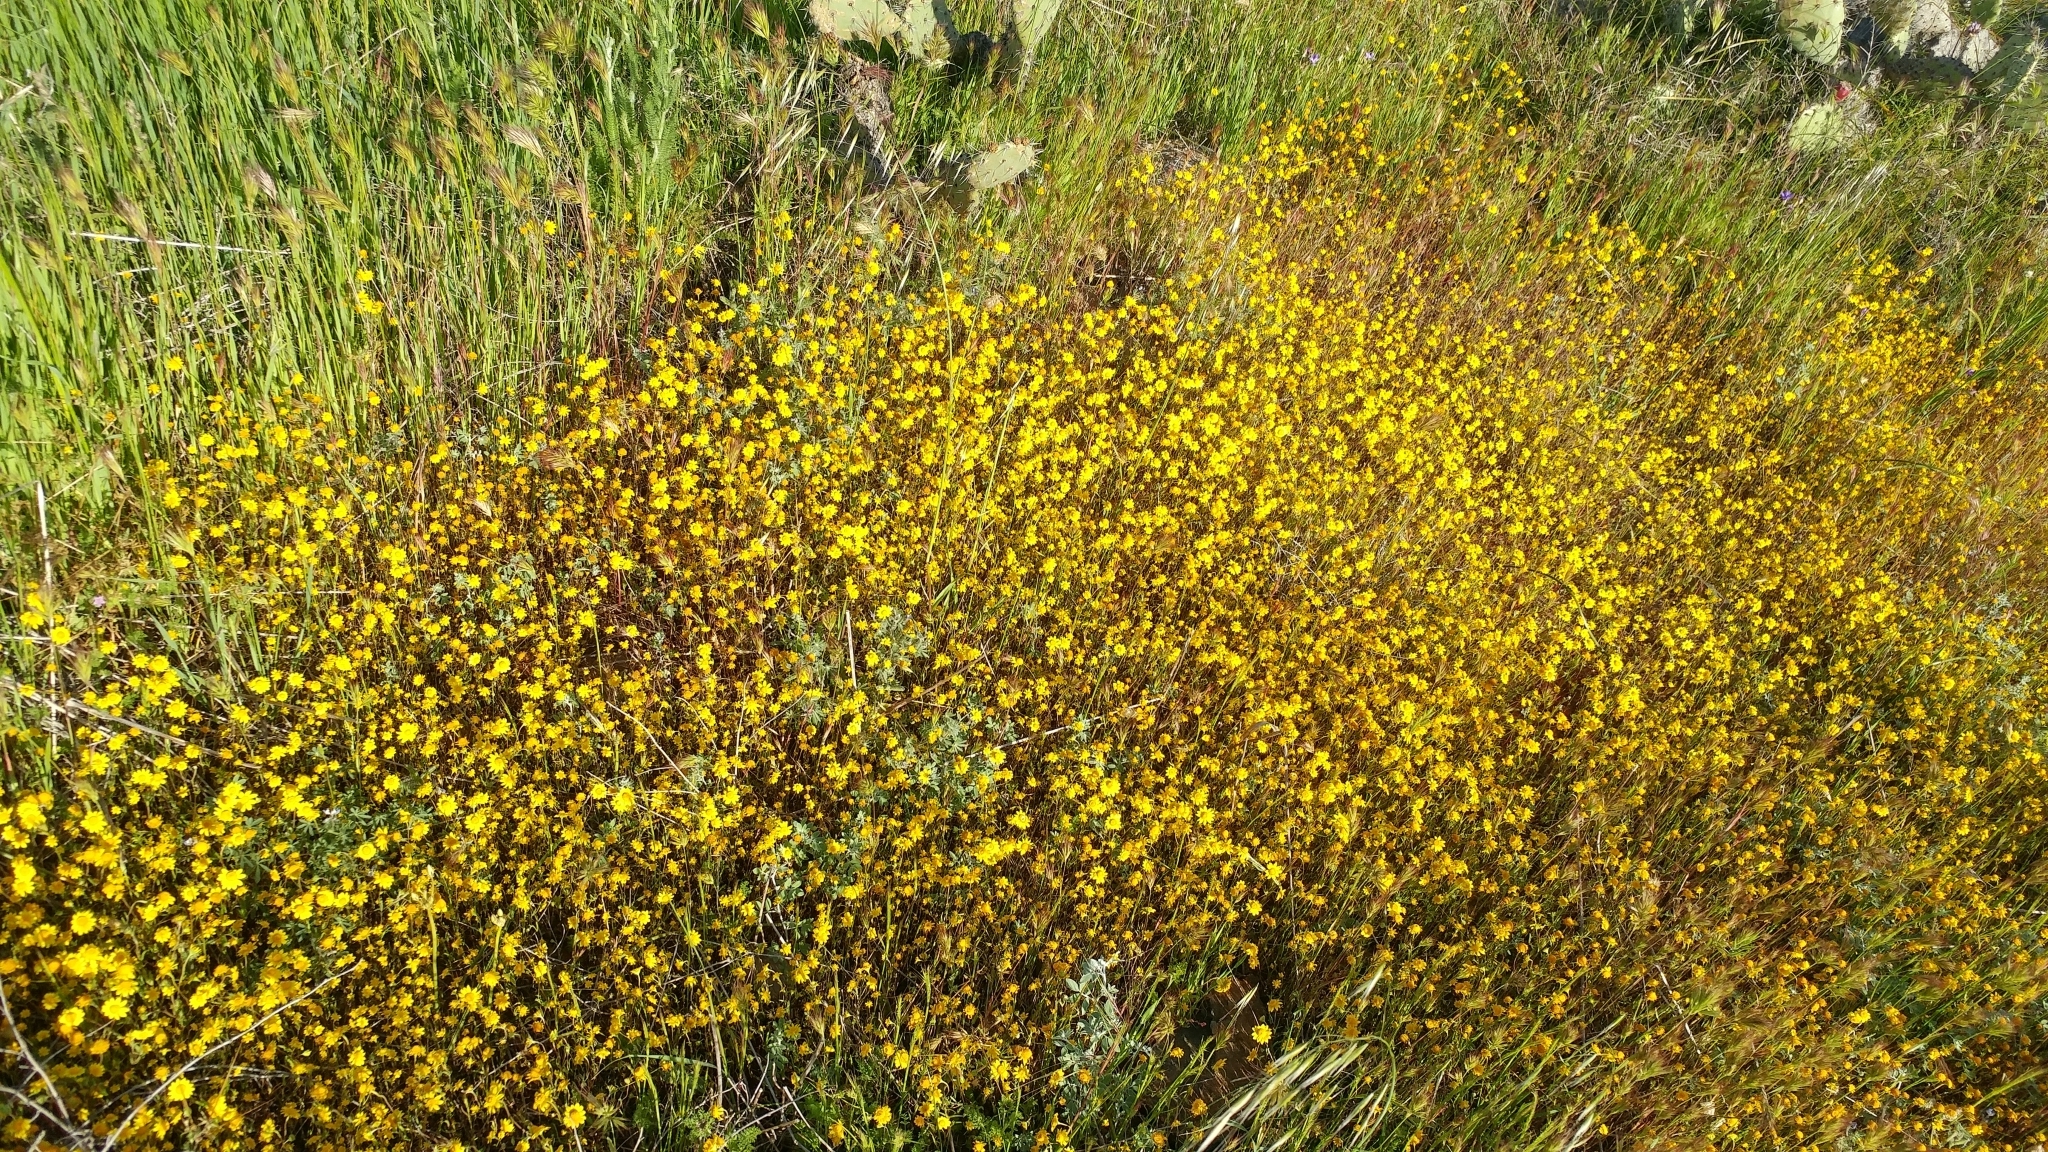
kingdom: Plantae
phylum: Tracheophyta
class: Magnoliopsida
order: Asterales
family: Asteraceae
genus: Lasthenia
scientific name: Lasthenia gracilis
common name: Common goldfields
